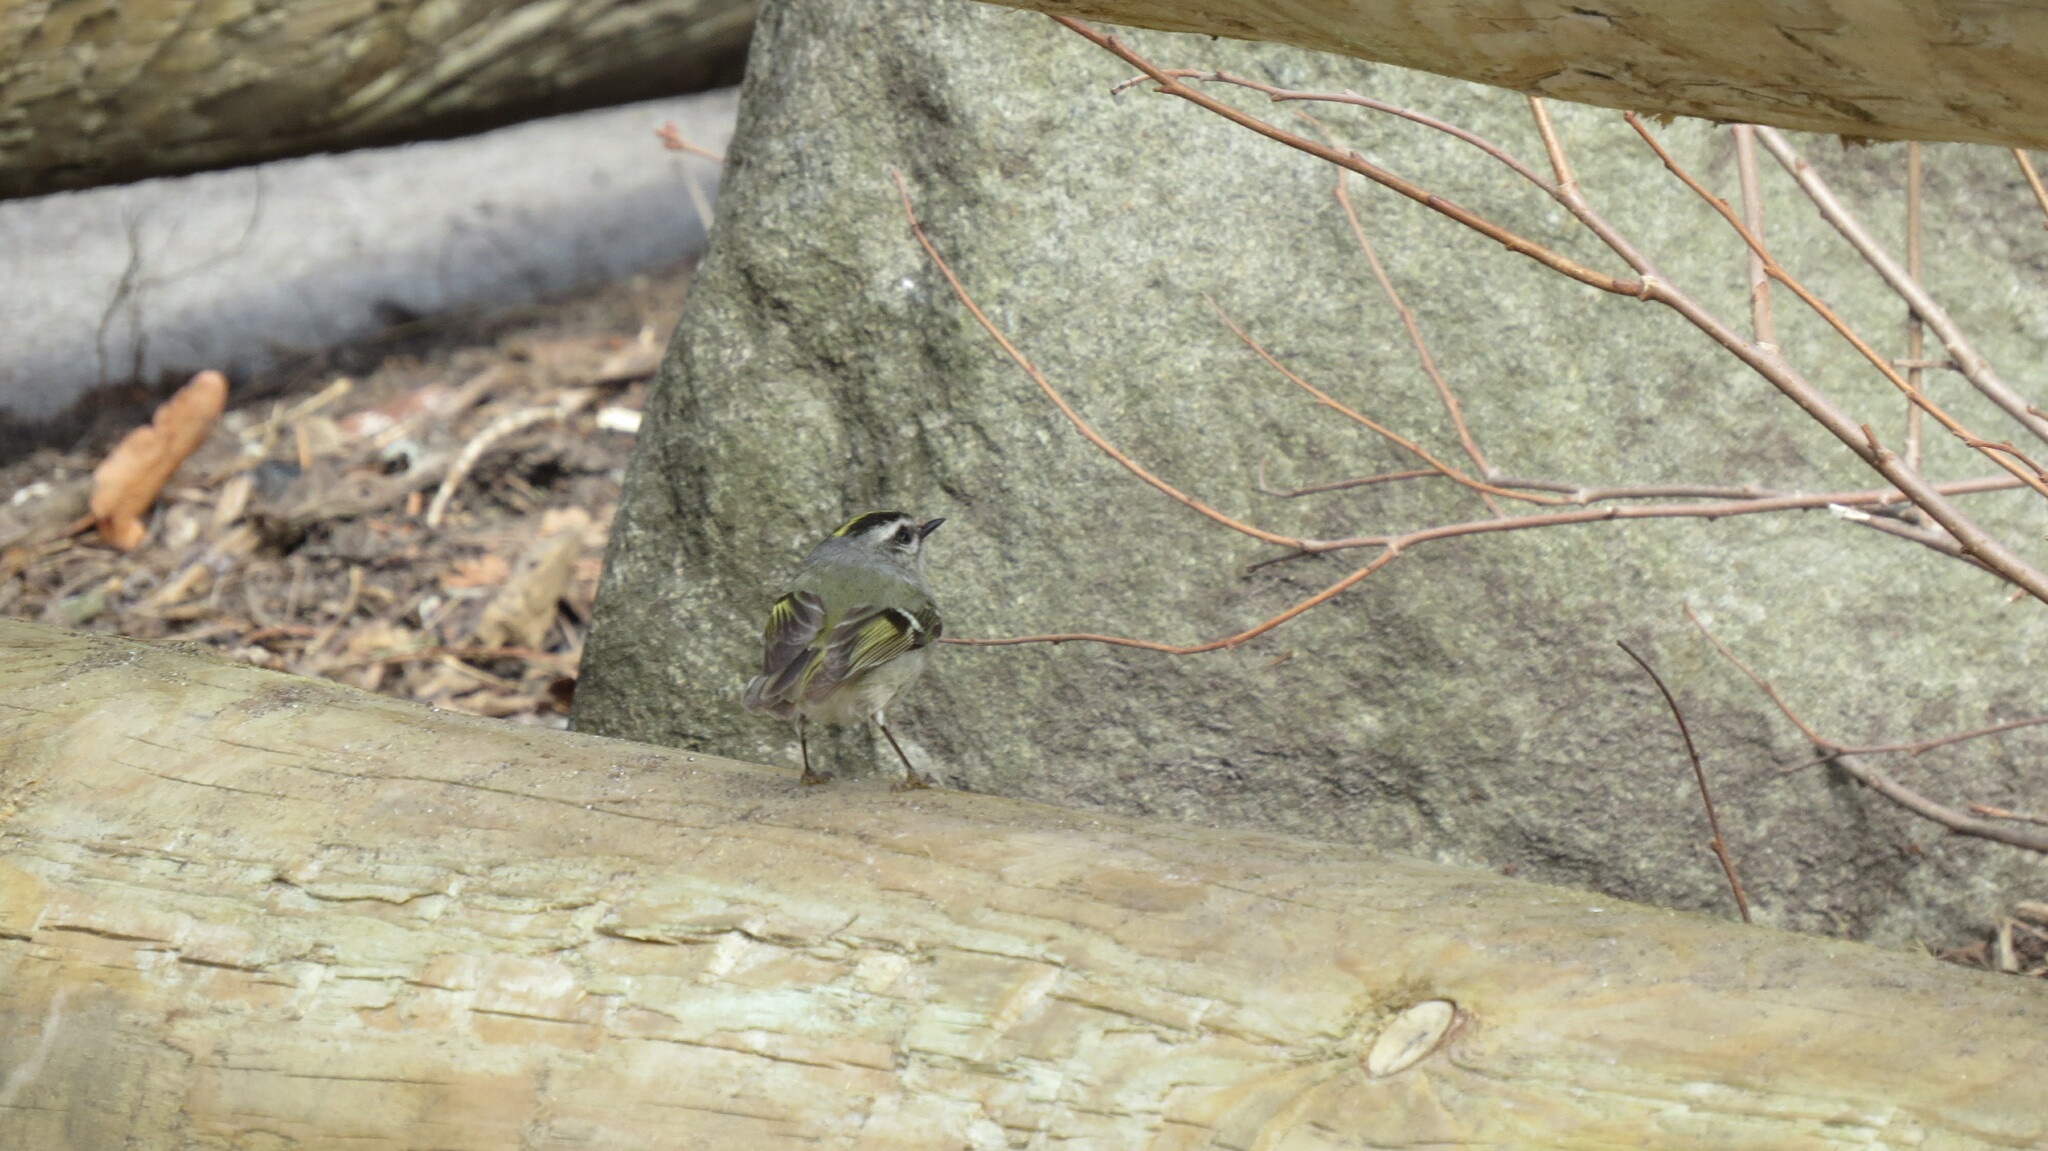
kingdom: Animalia
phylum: Chordata
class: Aves
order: Passeriformes
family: Regulidae
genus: Regulus
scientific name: Regulus satrapa
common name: Golden-crowned kinglet
